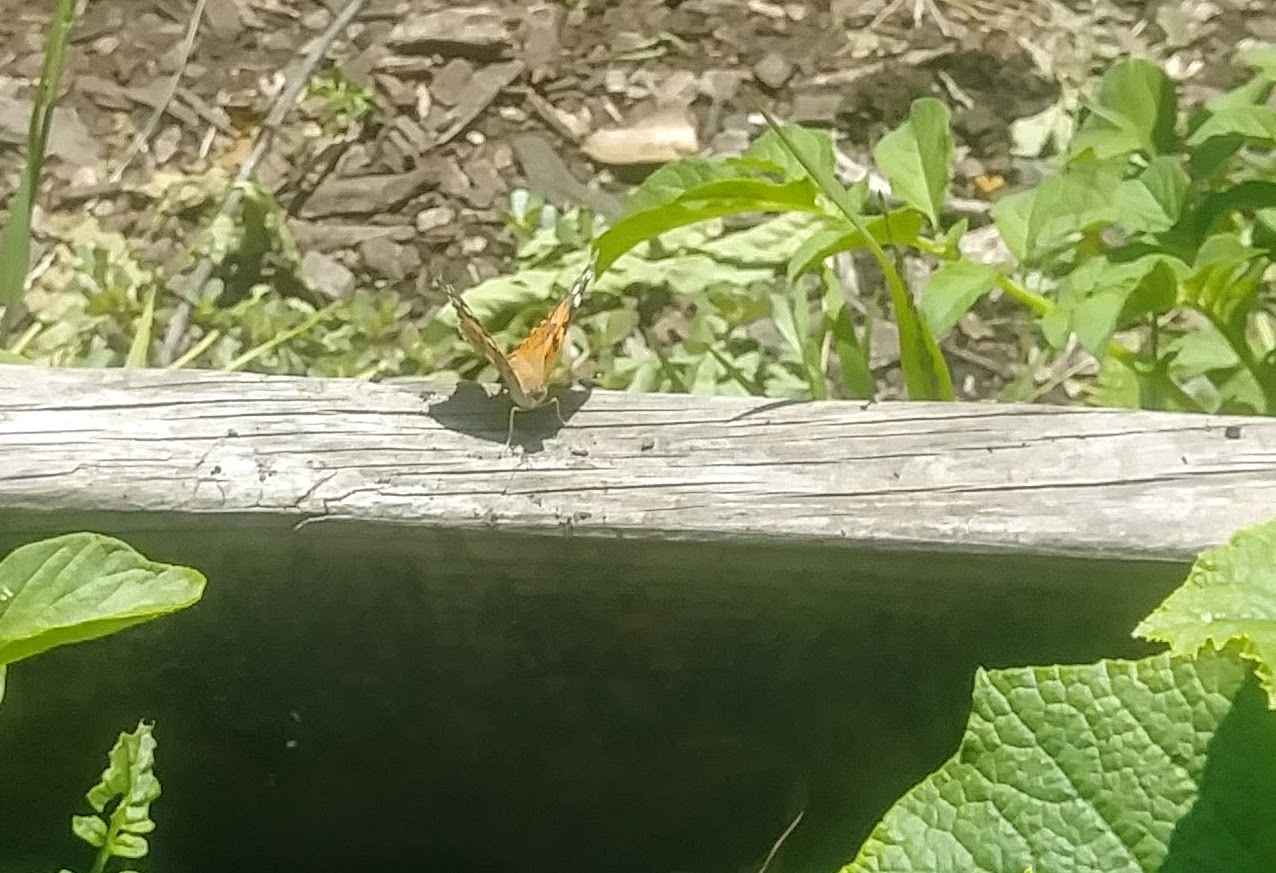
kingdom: Animalia
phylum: Arthropoda
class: Insecta
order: Lepidoptera
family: Nymphalidae
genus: Vanessa
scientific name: Vanessa cardui
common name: Painted lady
